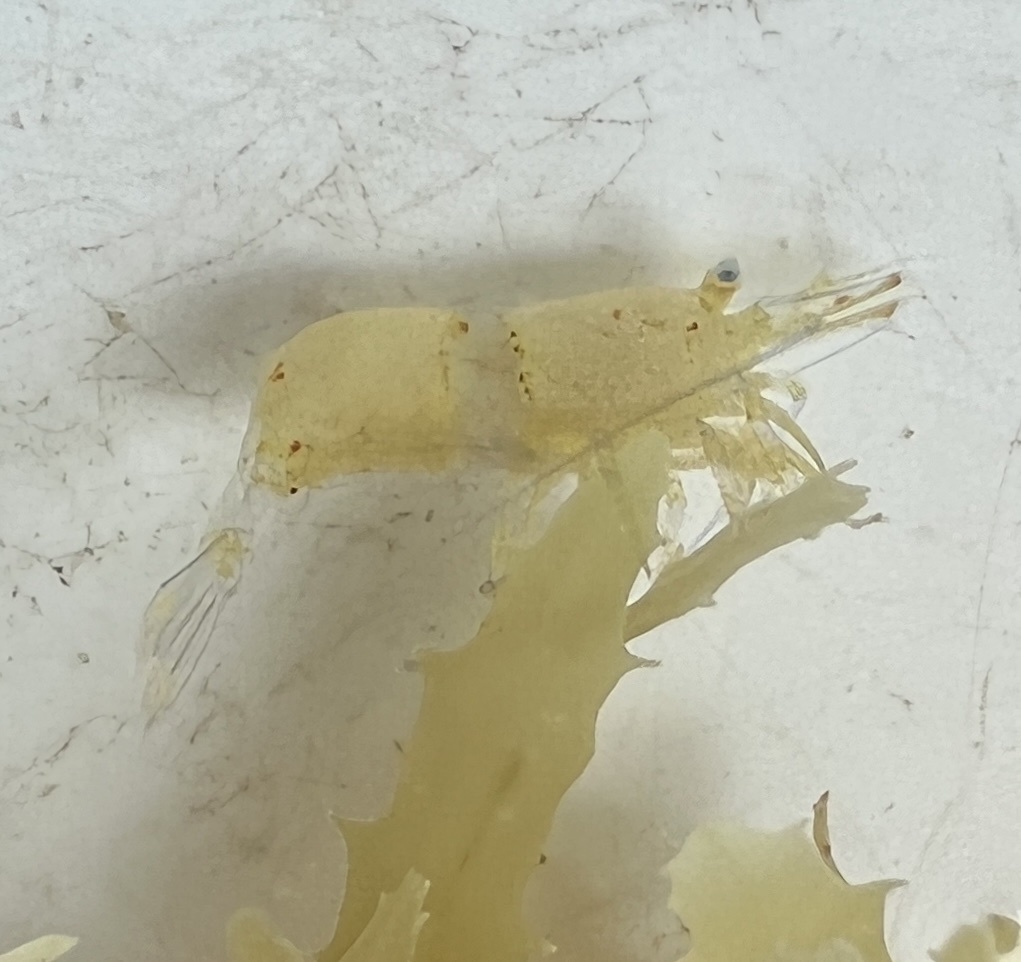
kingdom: Animalia
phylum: Arthropoda
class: Malacostraca
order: Decapoda
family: Hippolytidae
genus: Hippolyte
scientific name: Hippolyte coerulescens
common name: Cerulean sargassum shrimp
